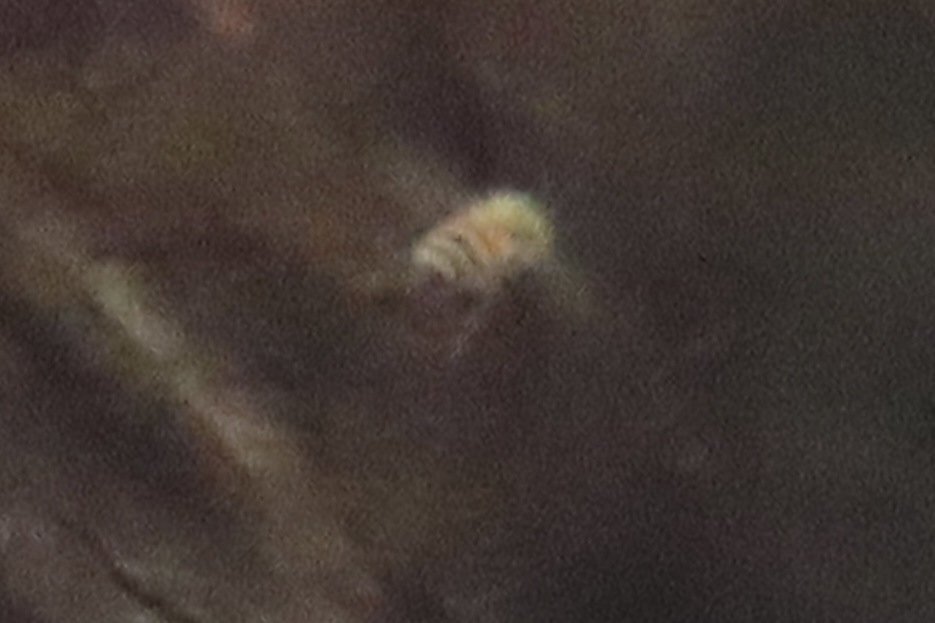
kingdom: Animalia
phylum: Arthropoda
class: Insecta
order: Hymenoptera
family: Apidae
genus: Apis
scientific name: Apis mellifera
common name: Honey bee
